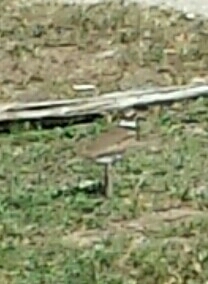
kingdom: Animalia
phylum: Chordata
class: Aves
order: Charadriiformes
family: Charadriidae
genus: Charadrius
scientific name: Charadrius vociferus
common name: Killdeer
